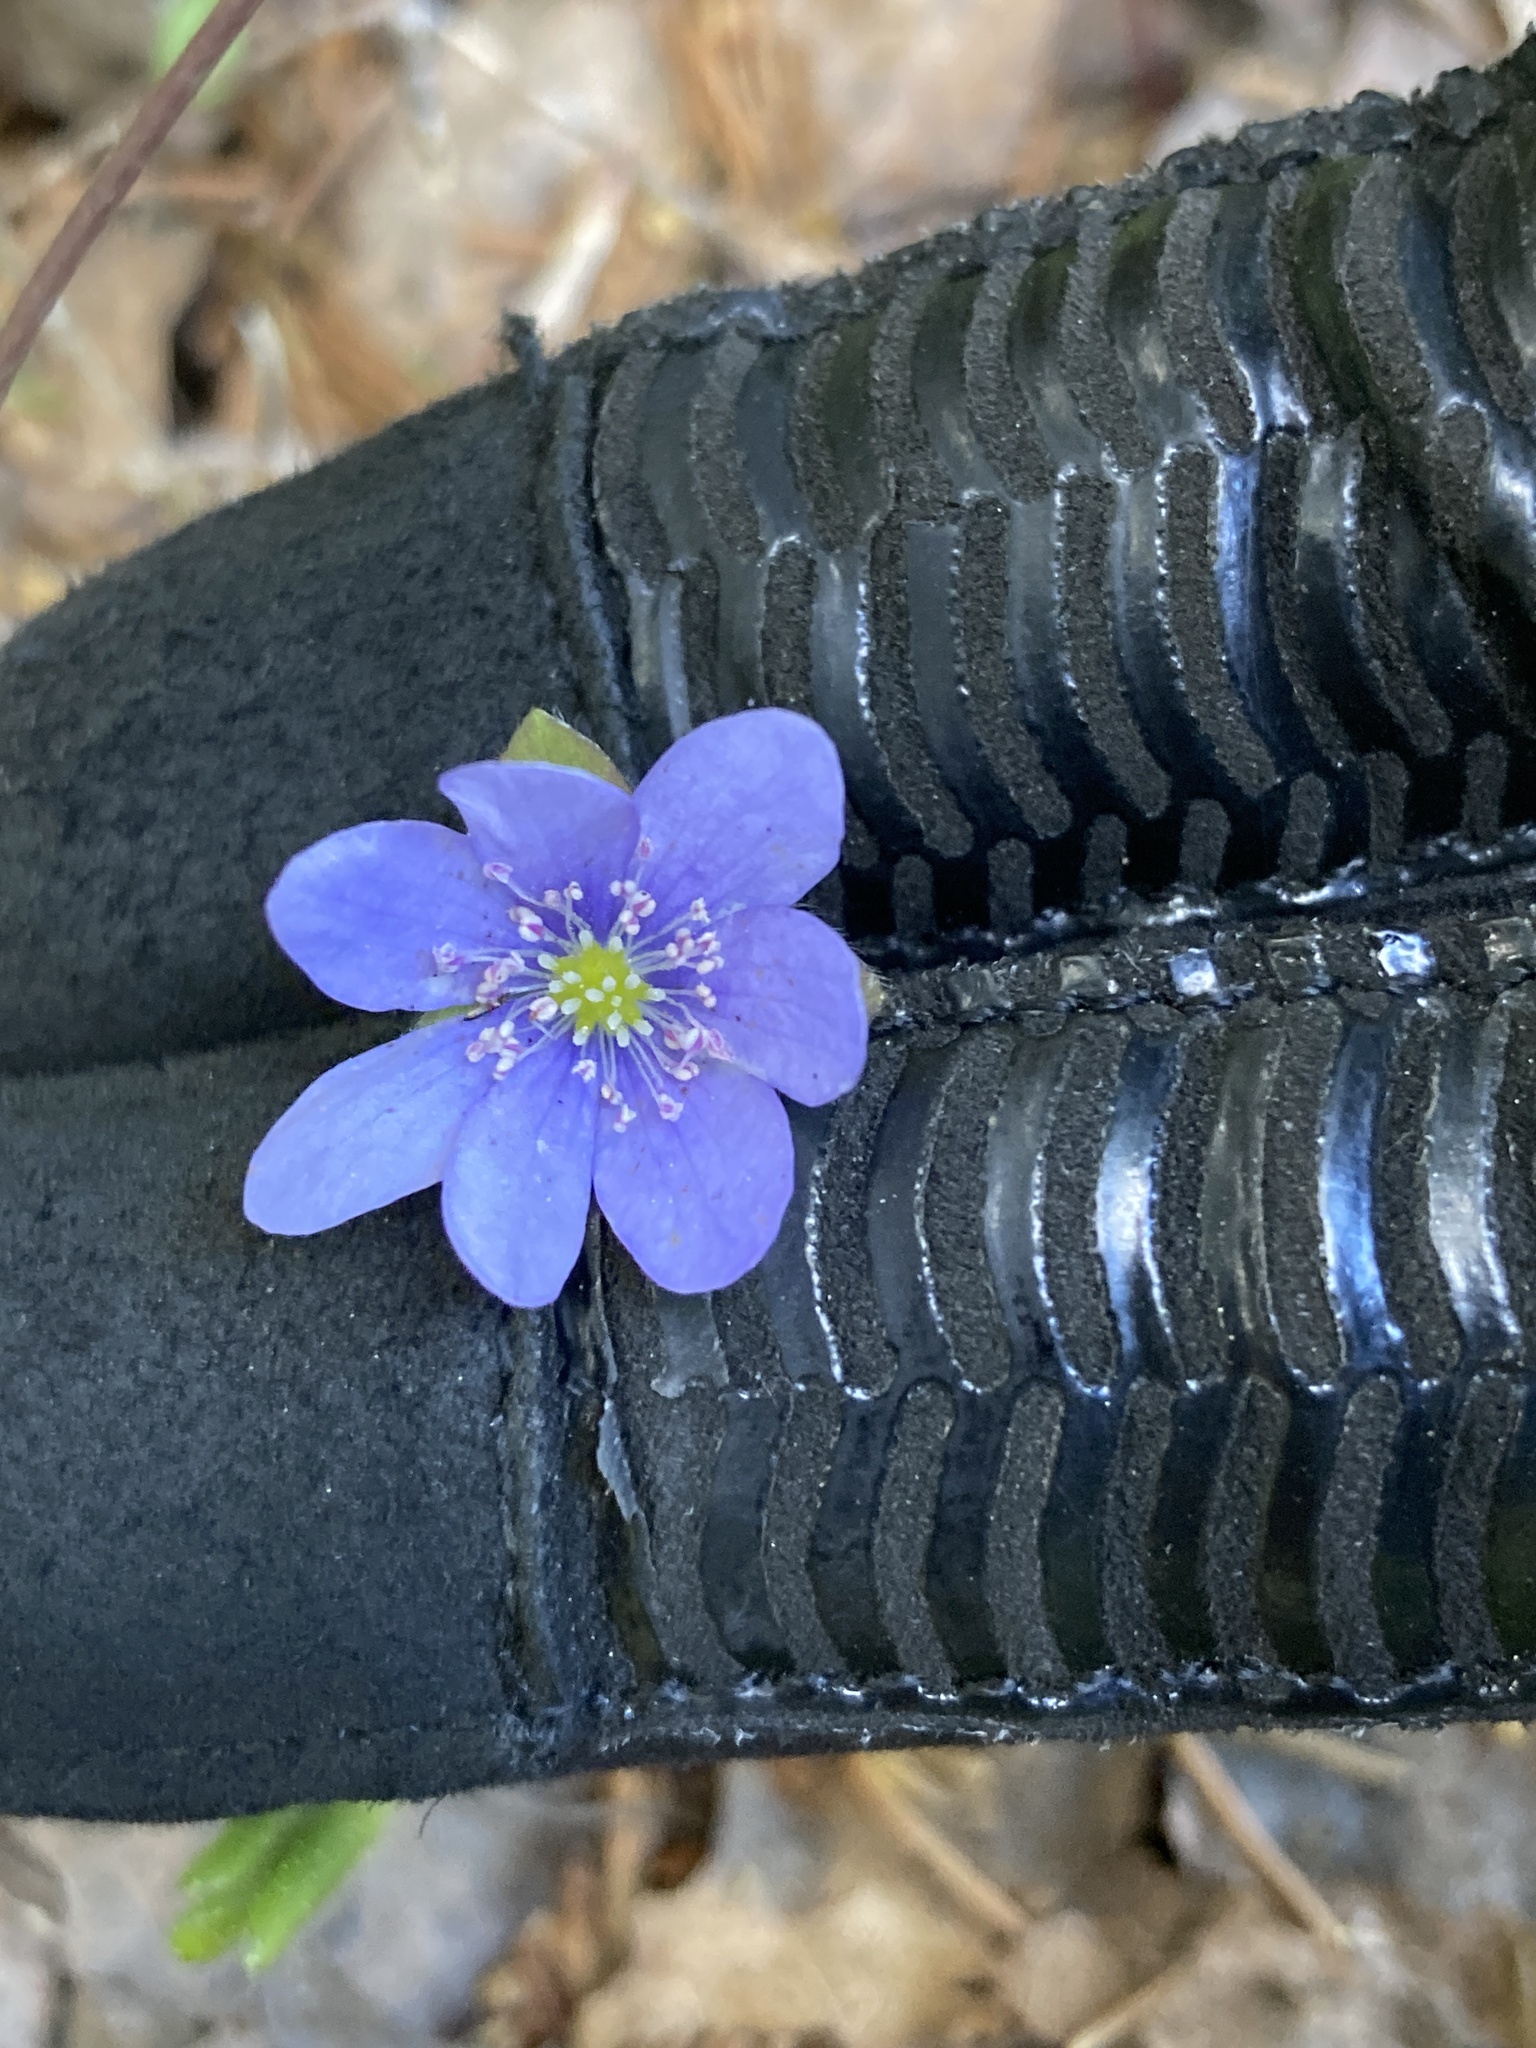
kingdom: Plantae
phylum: Tracheophyta
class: Magnoliopsida
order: Ranunculales
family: Ranunculaceae
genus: Hepatica
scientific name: Hepatica nobilis
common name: Liverleaf
